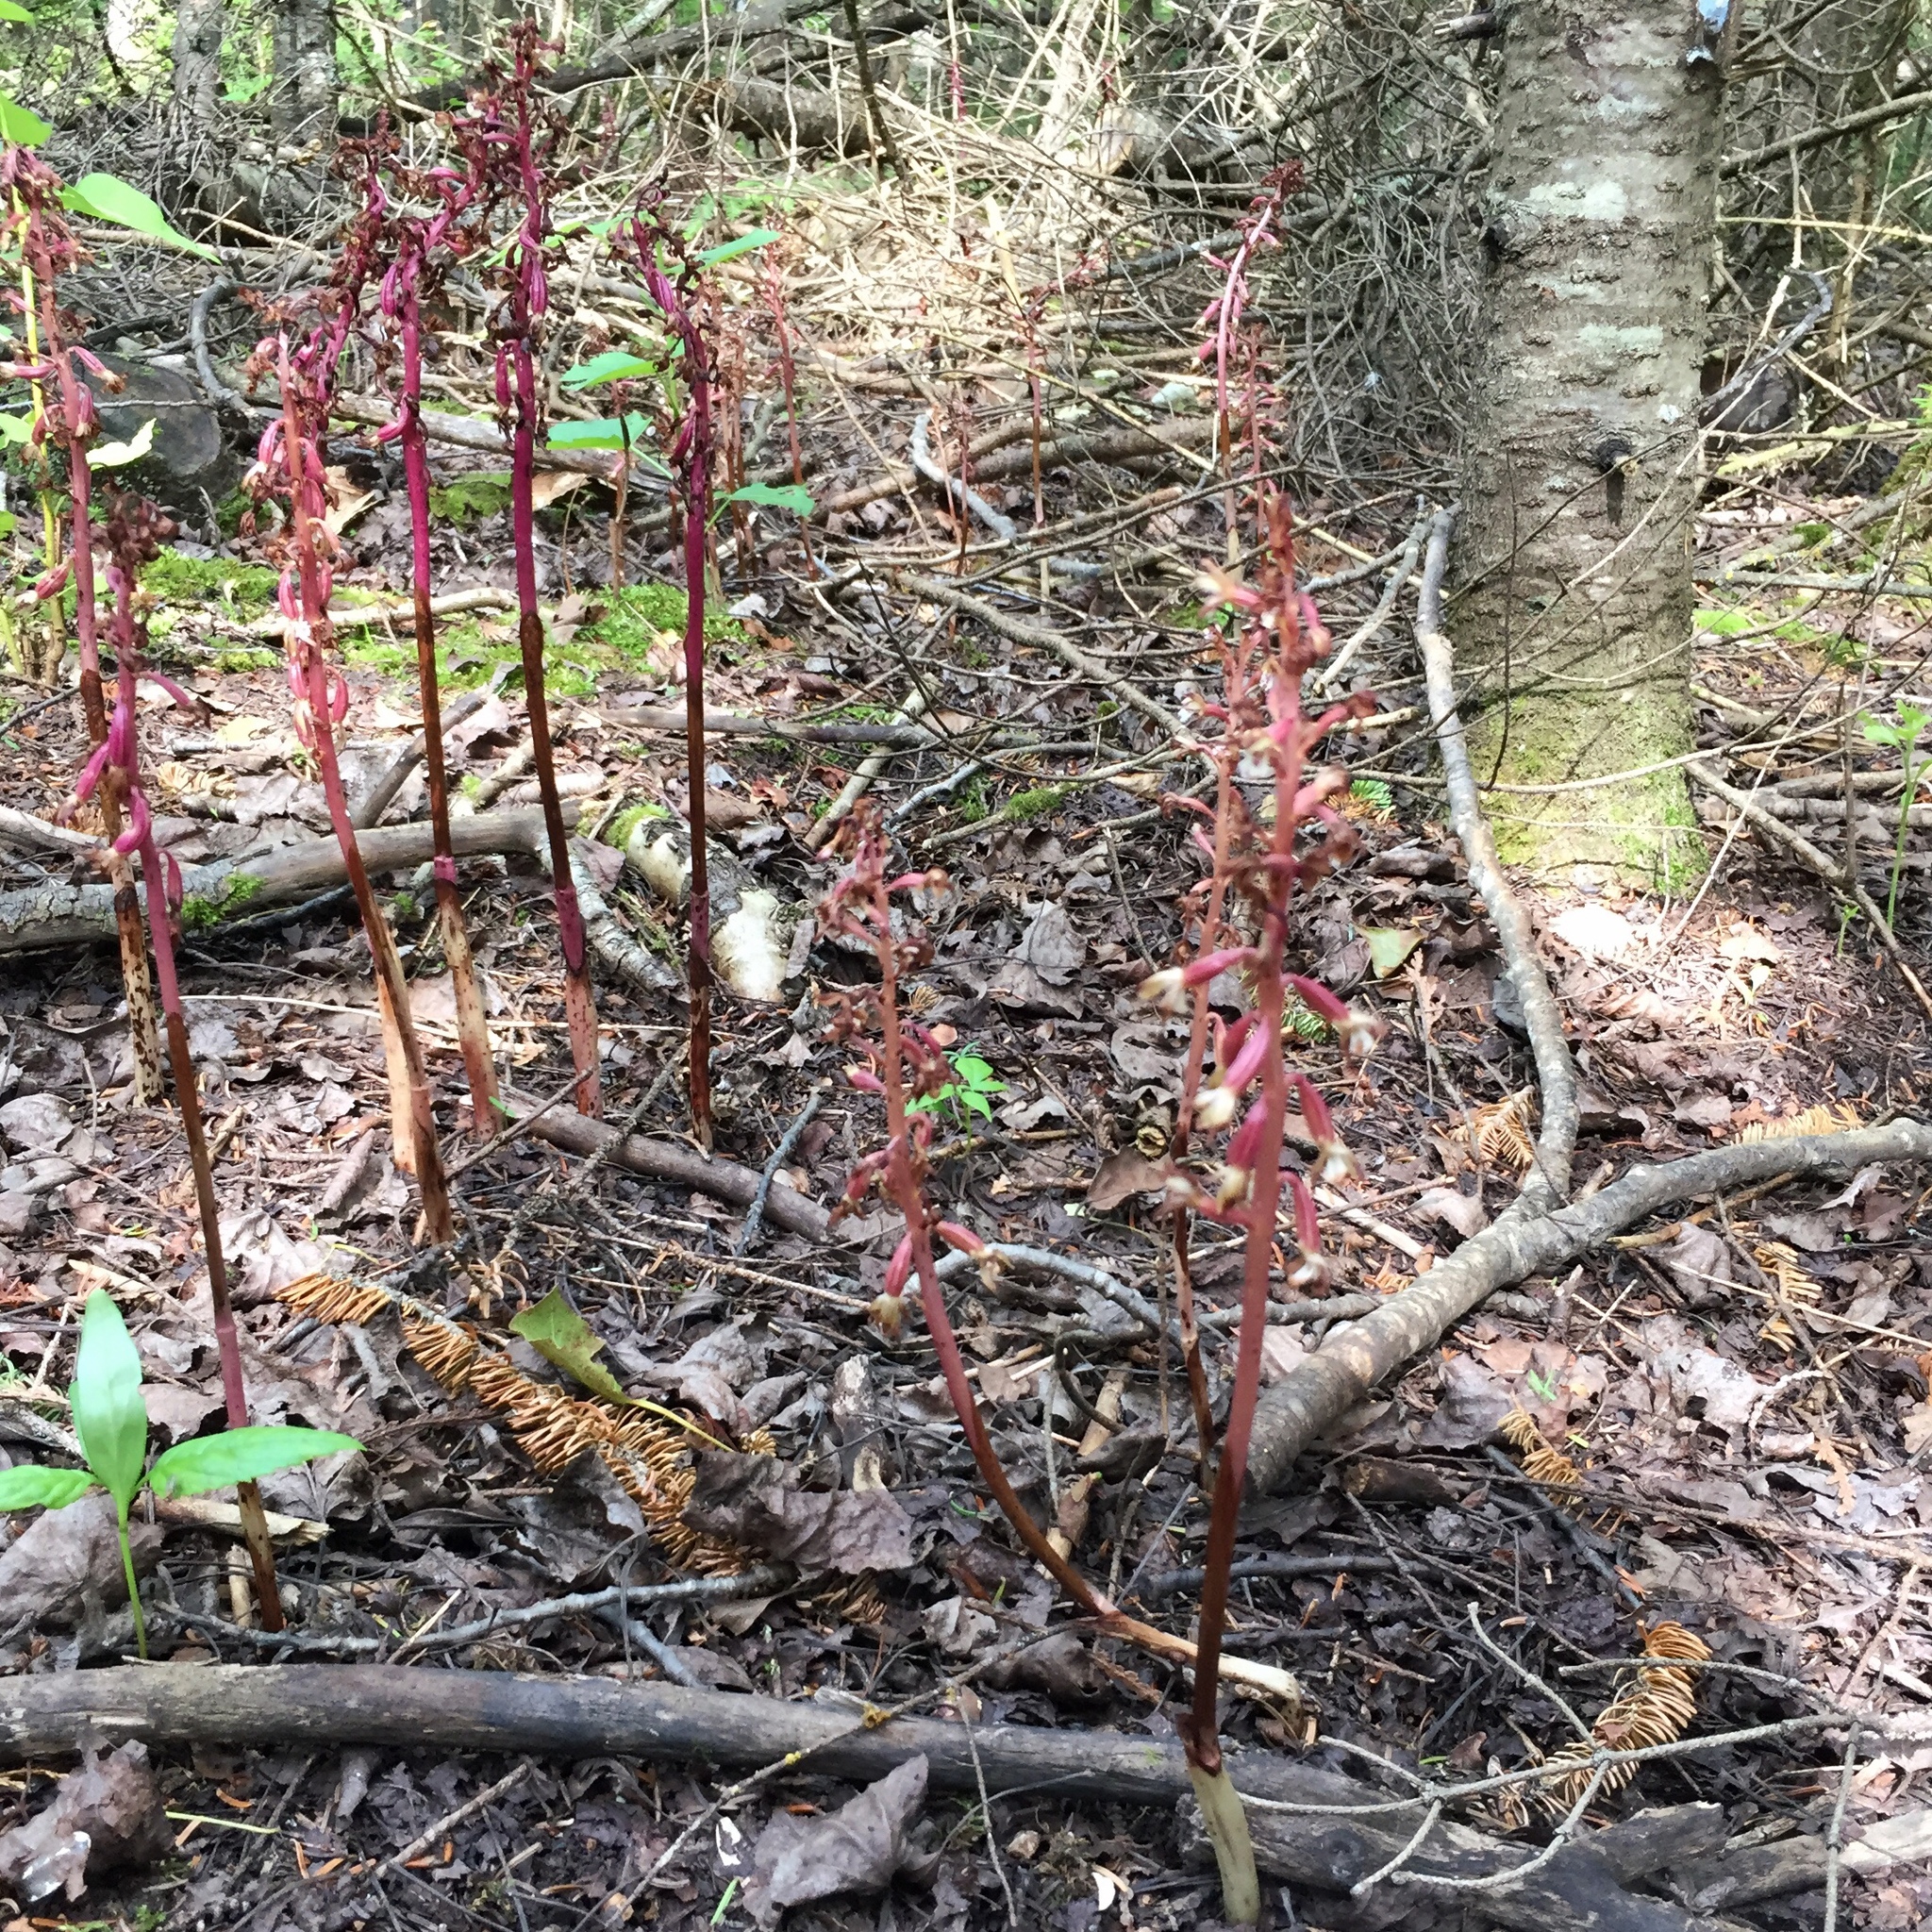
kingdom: Plantae
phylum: Tracheophyta
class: Liliopsida
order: Asparagales
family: Orchidaceae
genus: Corallorhiza
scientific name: Corallorhiza maculata
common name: Spotted coralroot
